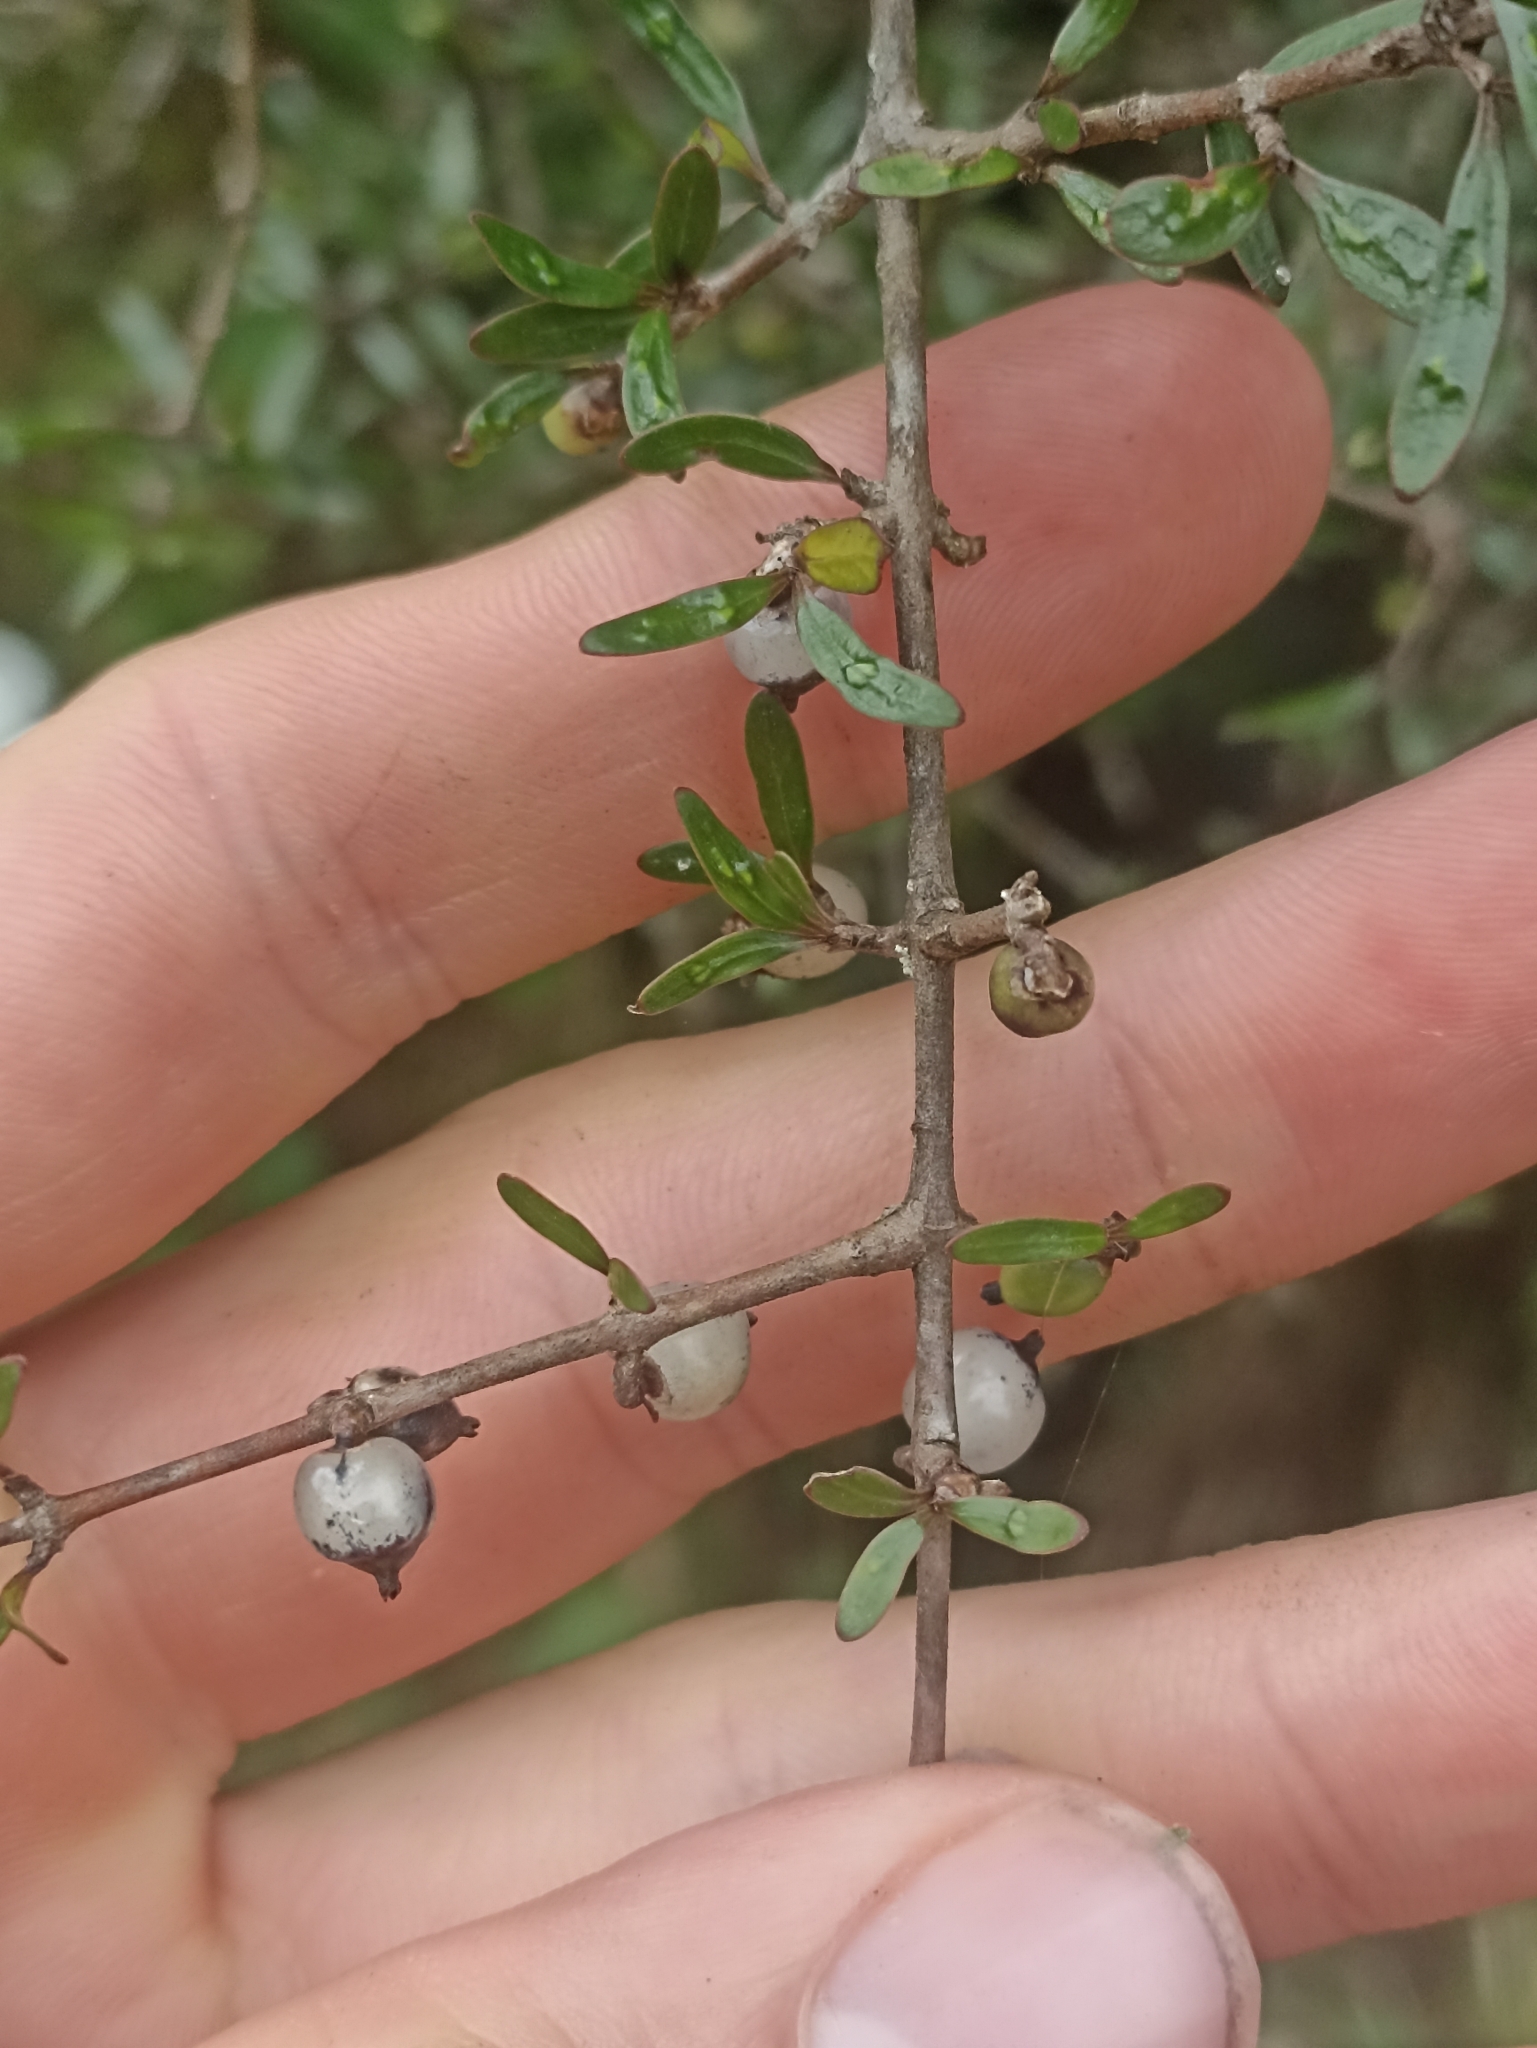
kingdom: Plantae
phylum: Tracheophyta
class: Magnoliopsida
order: Gentianales
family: Rubiaceae
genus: Coprosma
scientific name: Coprosma propinqua
